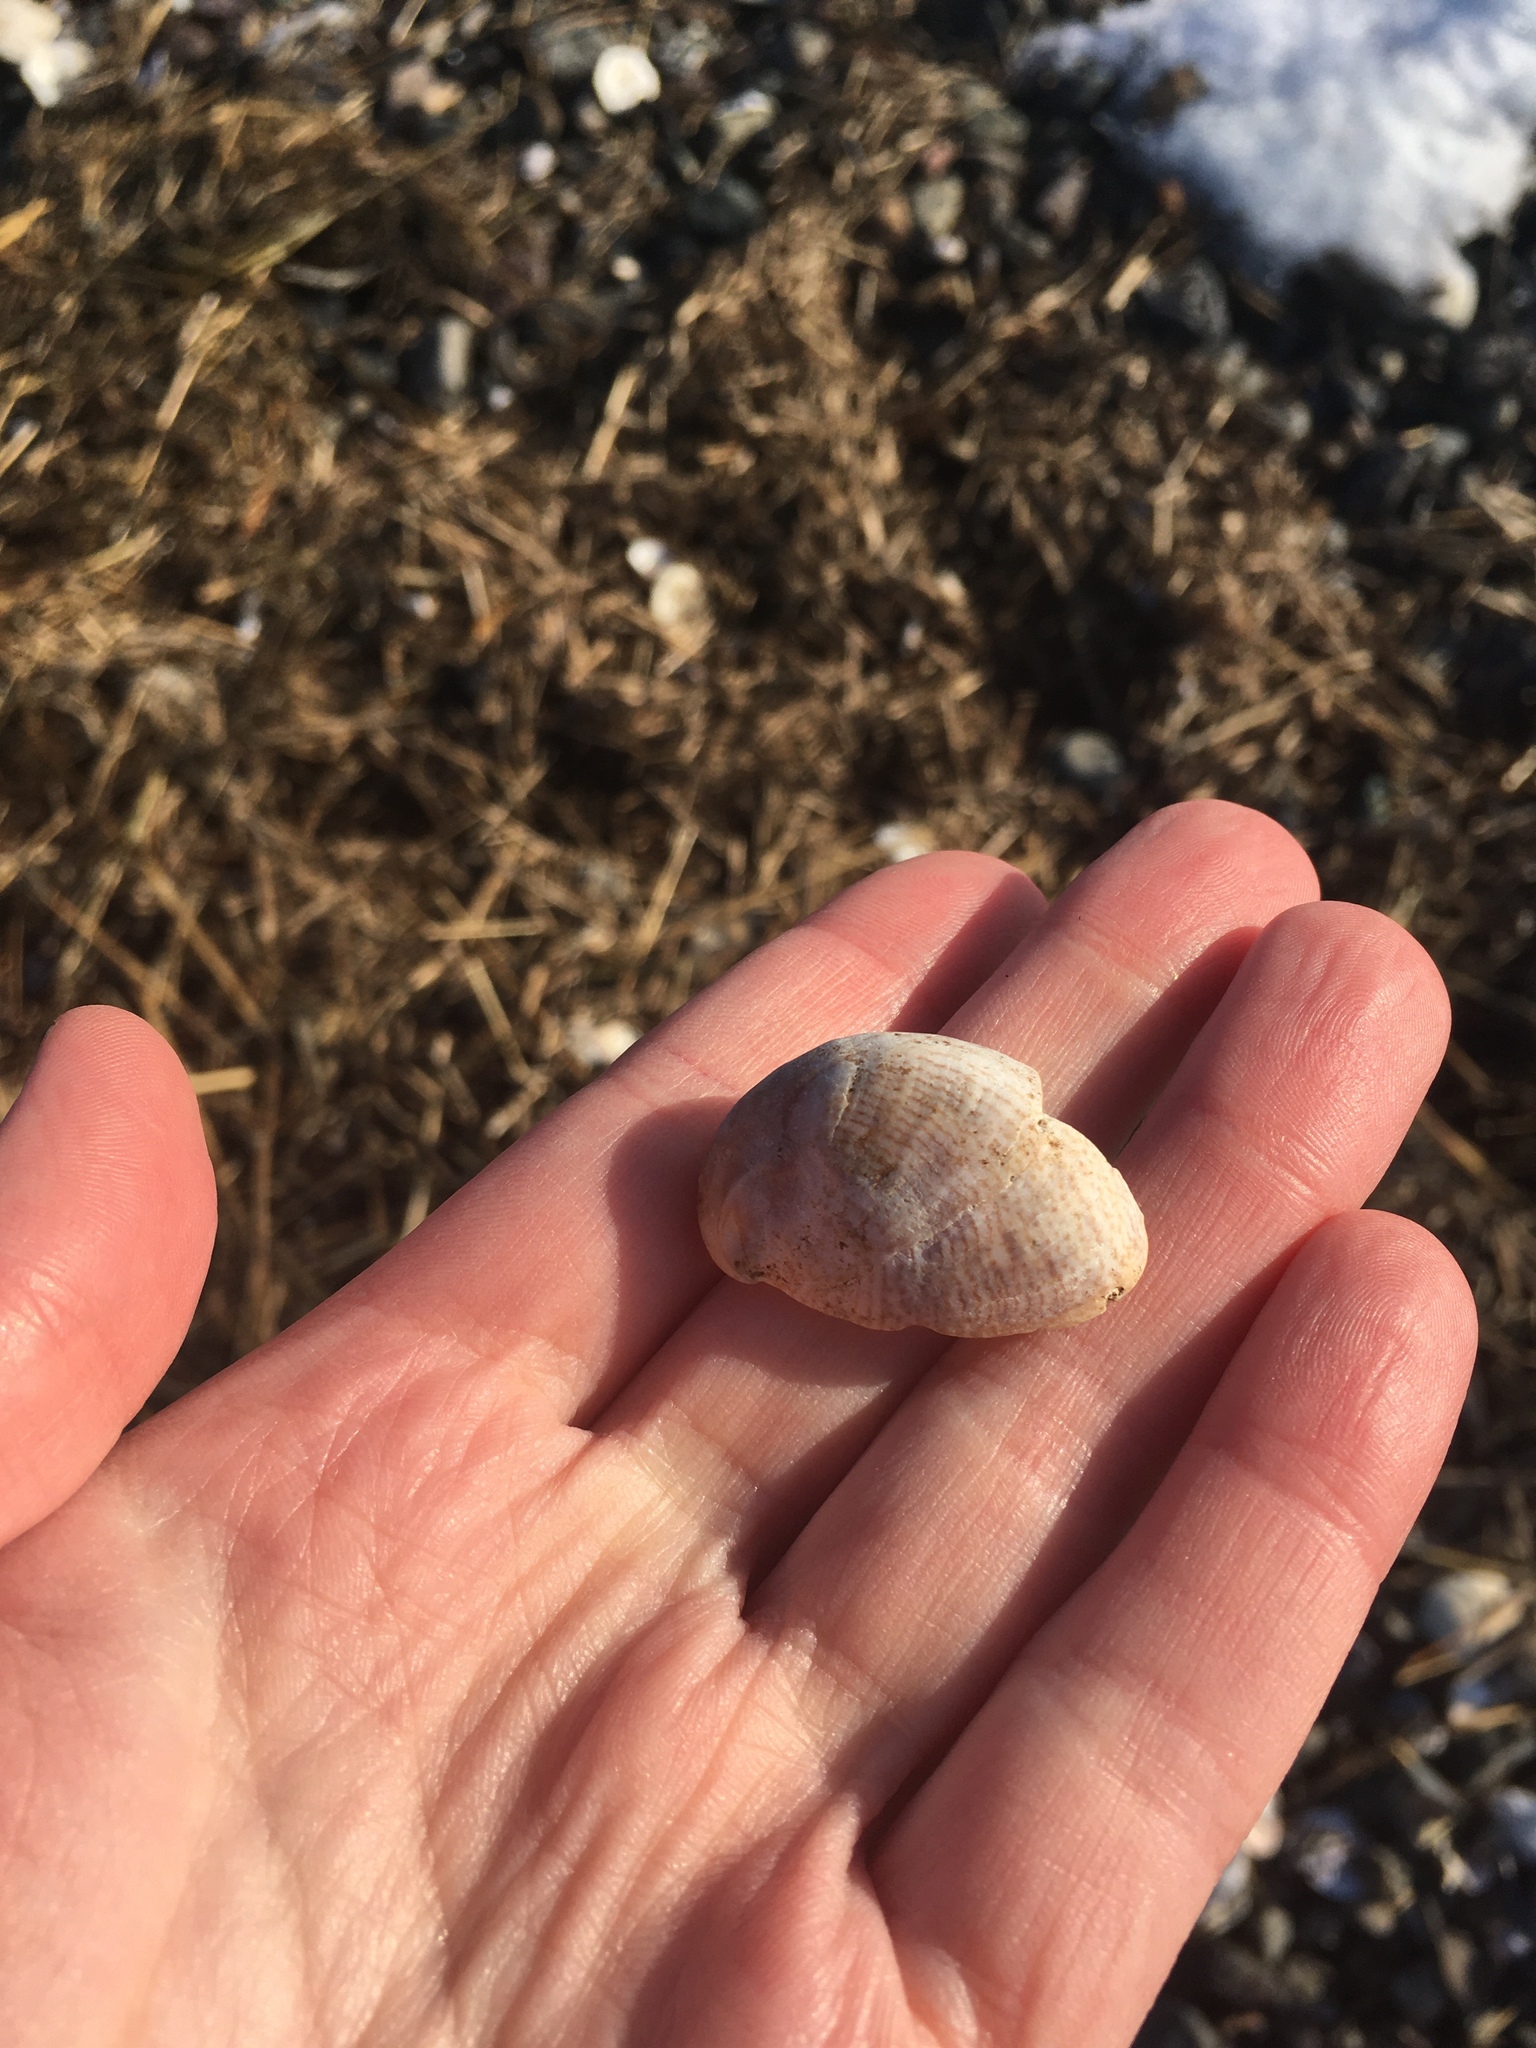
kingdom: Animalia
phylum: Mollusca
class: Gastropoda
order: Littorinimorpha
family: Calyptraeidae
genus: Crepidula
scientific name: Crepidula fornicata
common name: Slipper limpet
